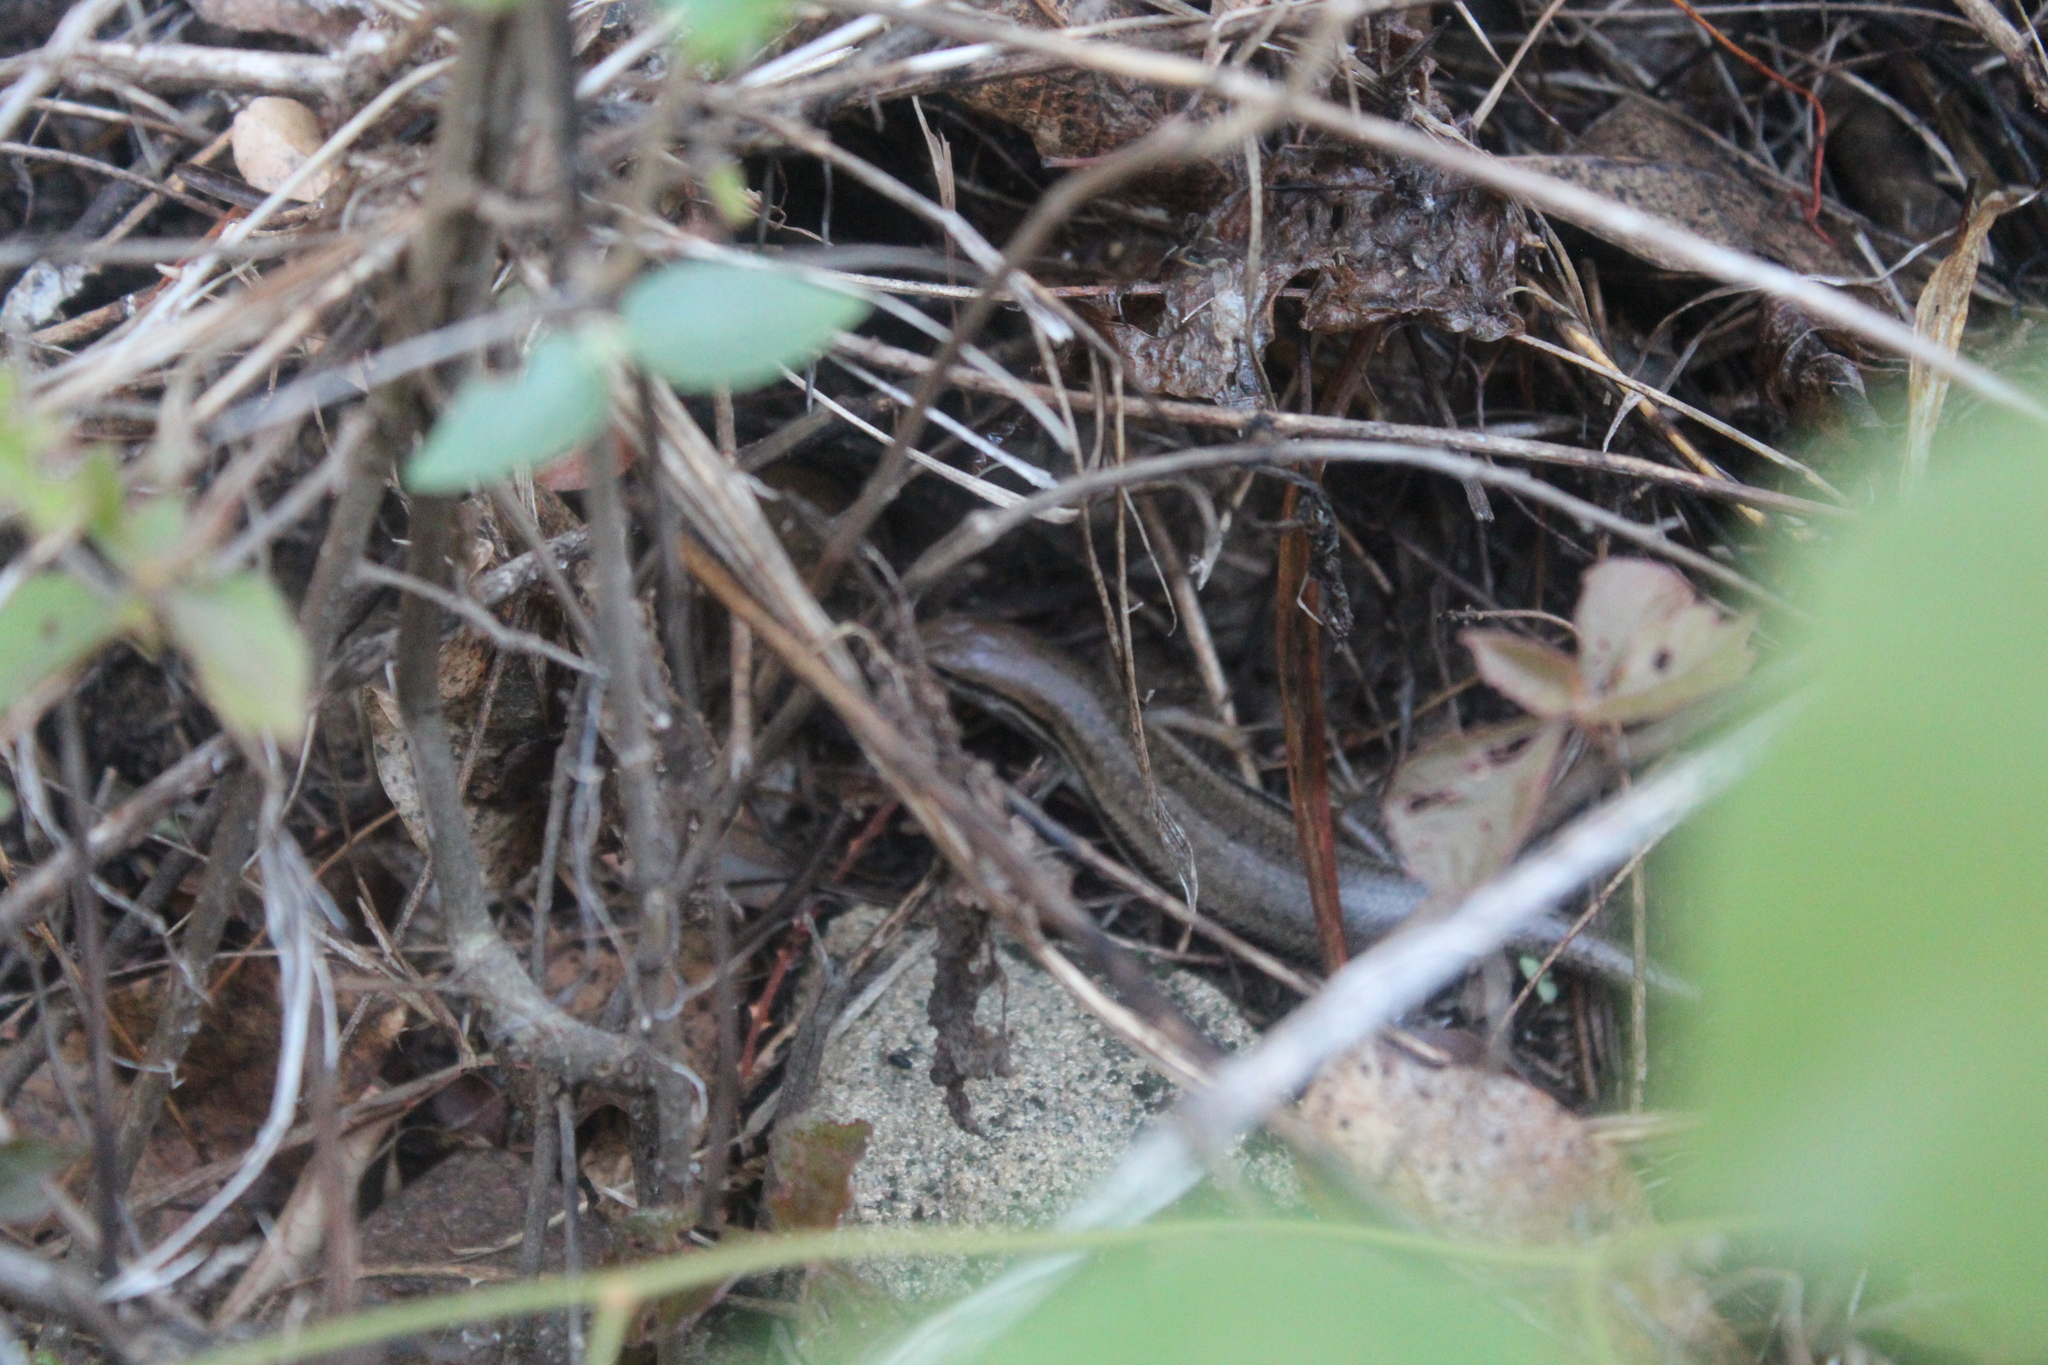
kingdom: Animalia
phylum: Chordata
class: Squamata
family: Scincidae
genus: Trachylepis
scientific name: Trachylepis gravenhorstii
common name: Gravenhorst's mabuya
